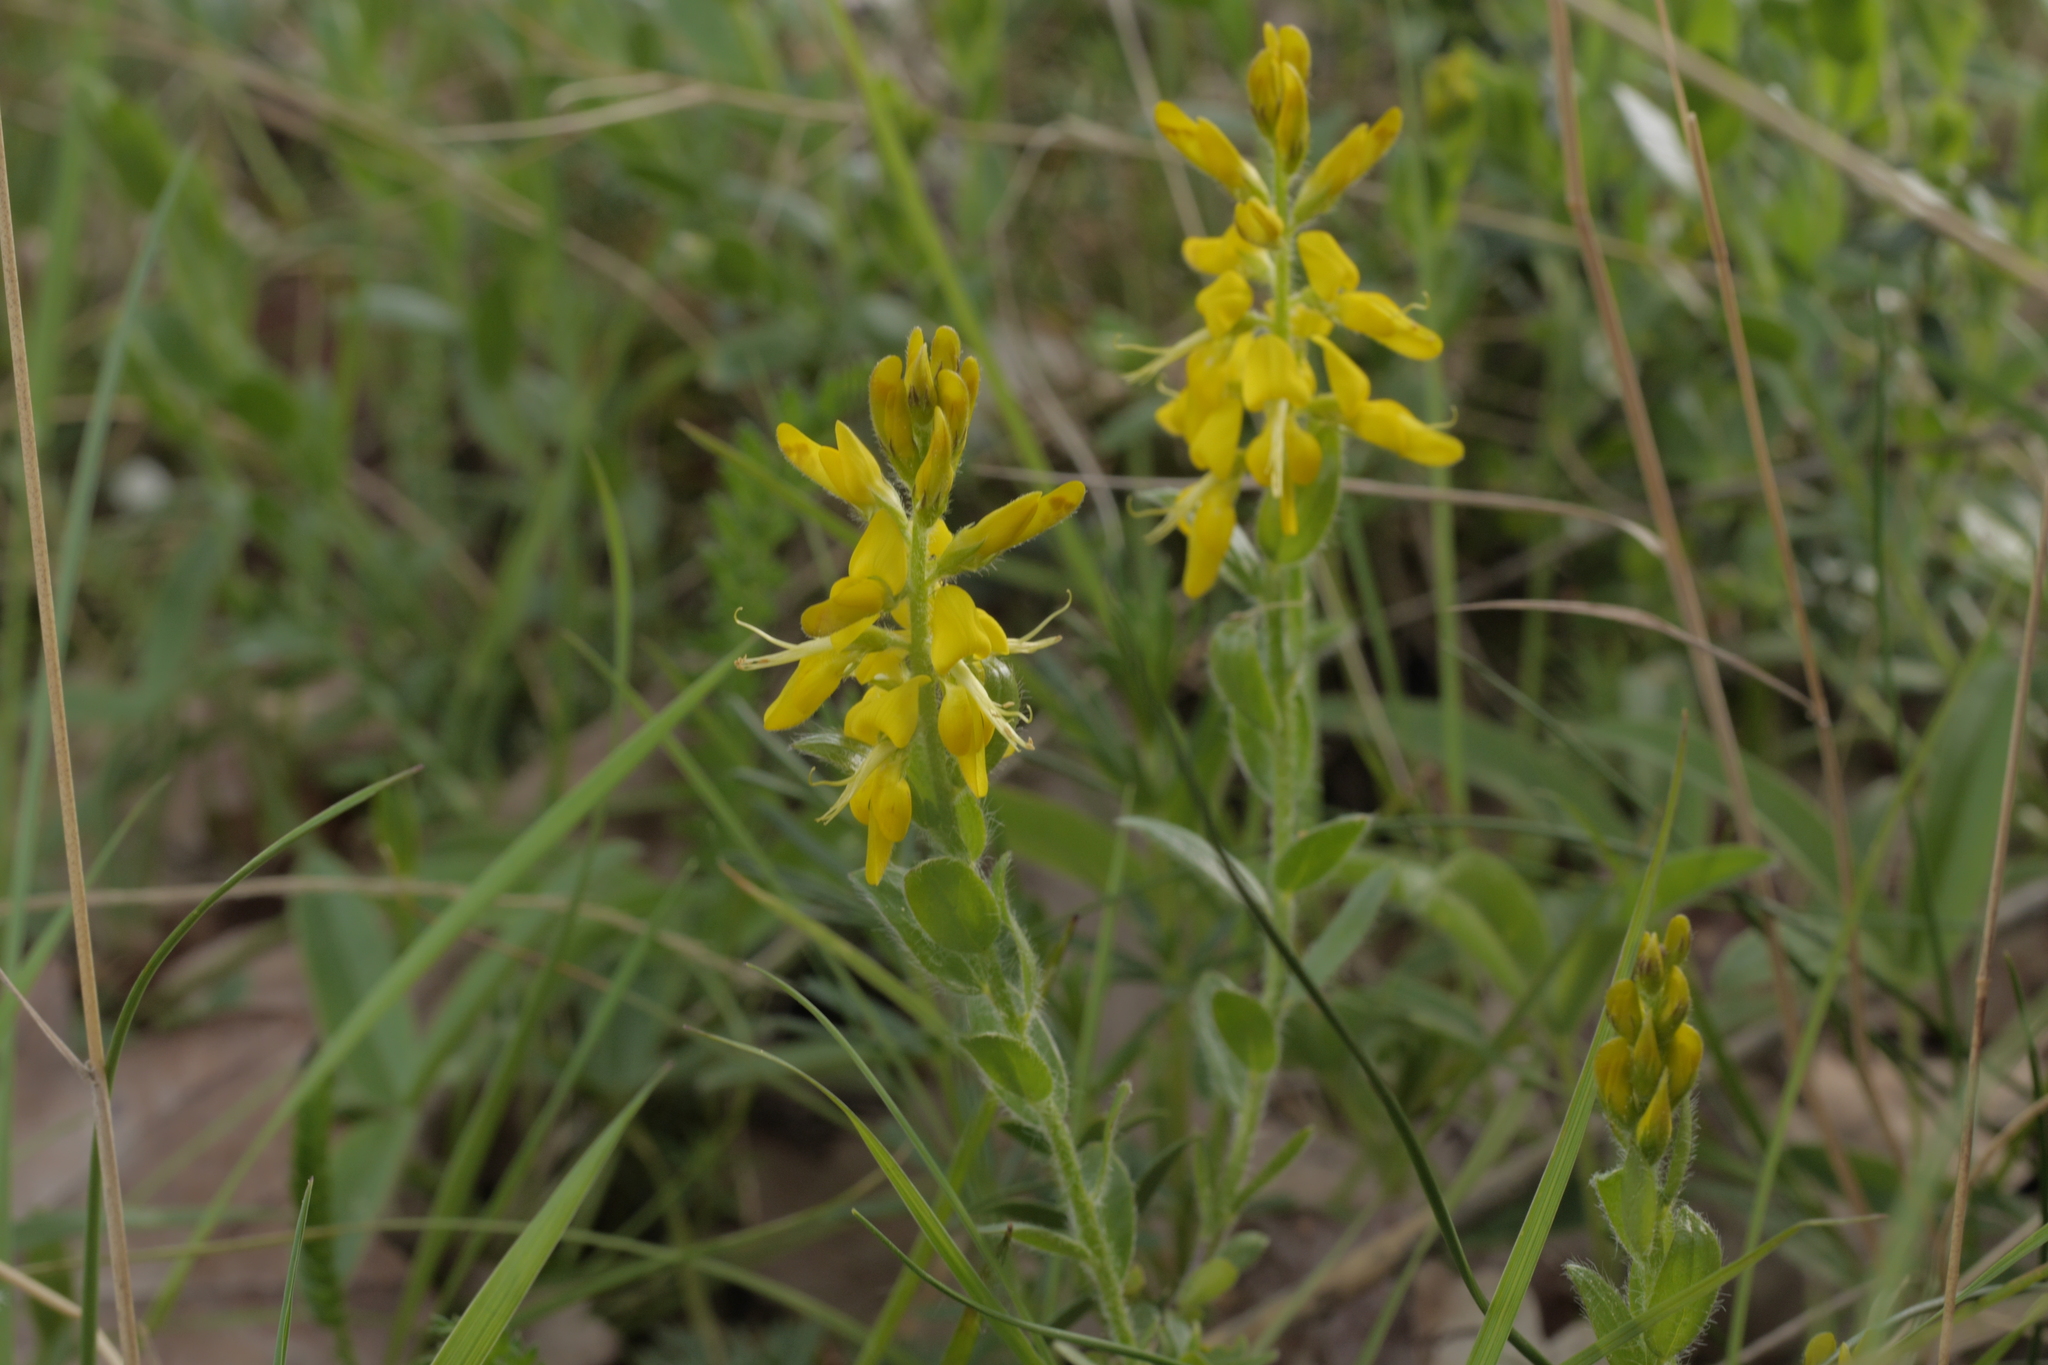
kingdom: Plantae
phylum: Tracheophyta
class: Magnoliopsida
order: Fabales
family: Fabaceae
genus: Genista
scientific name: Genista germanica
